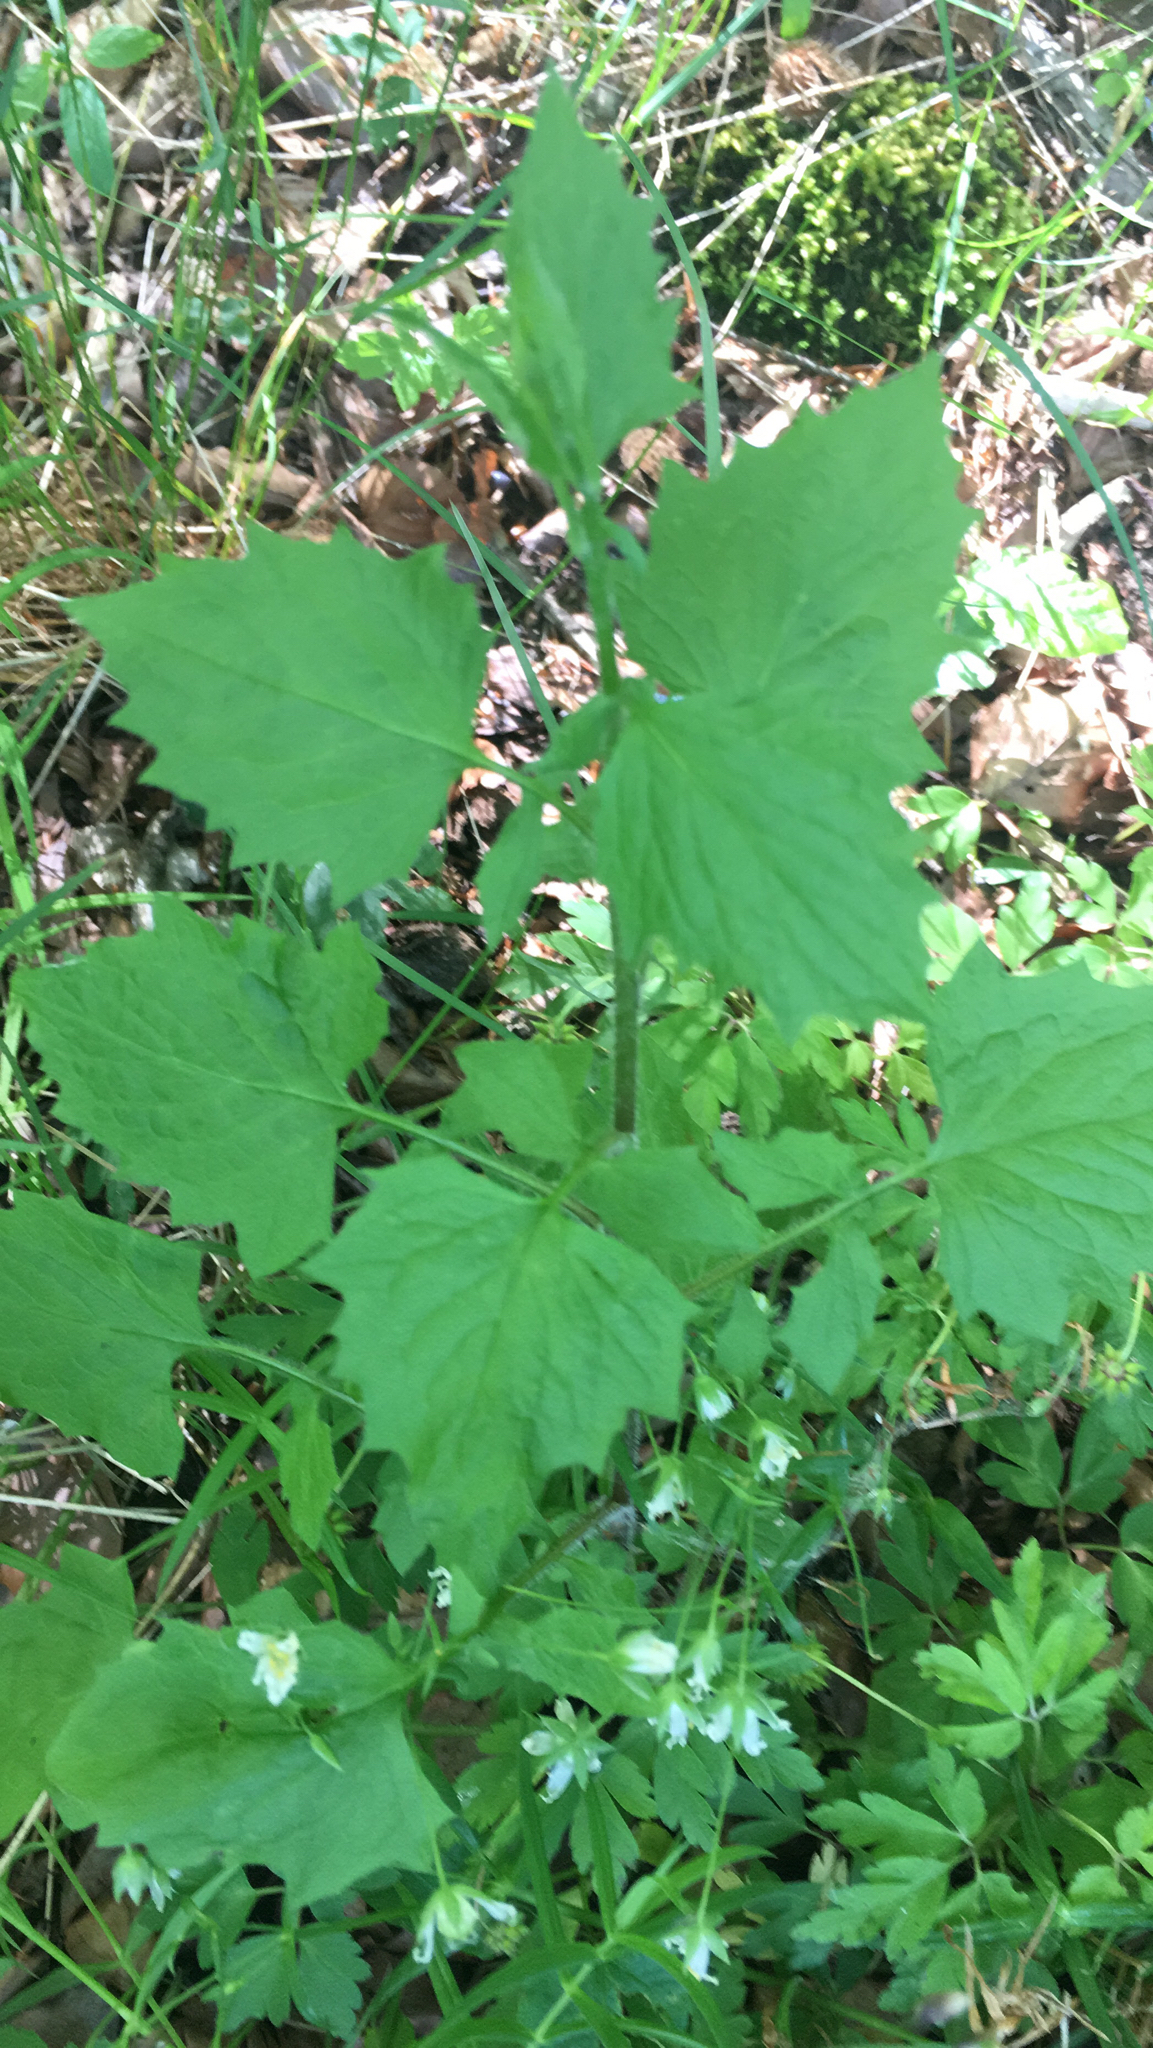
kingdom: Plantae
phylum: Tracheophyta
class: Magnoliopsida
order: Asterales
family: Asteraceae
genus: Lapsana
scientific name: Lapsana communis
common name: Nipplewort
